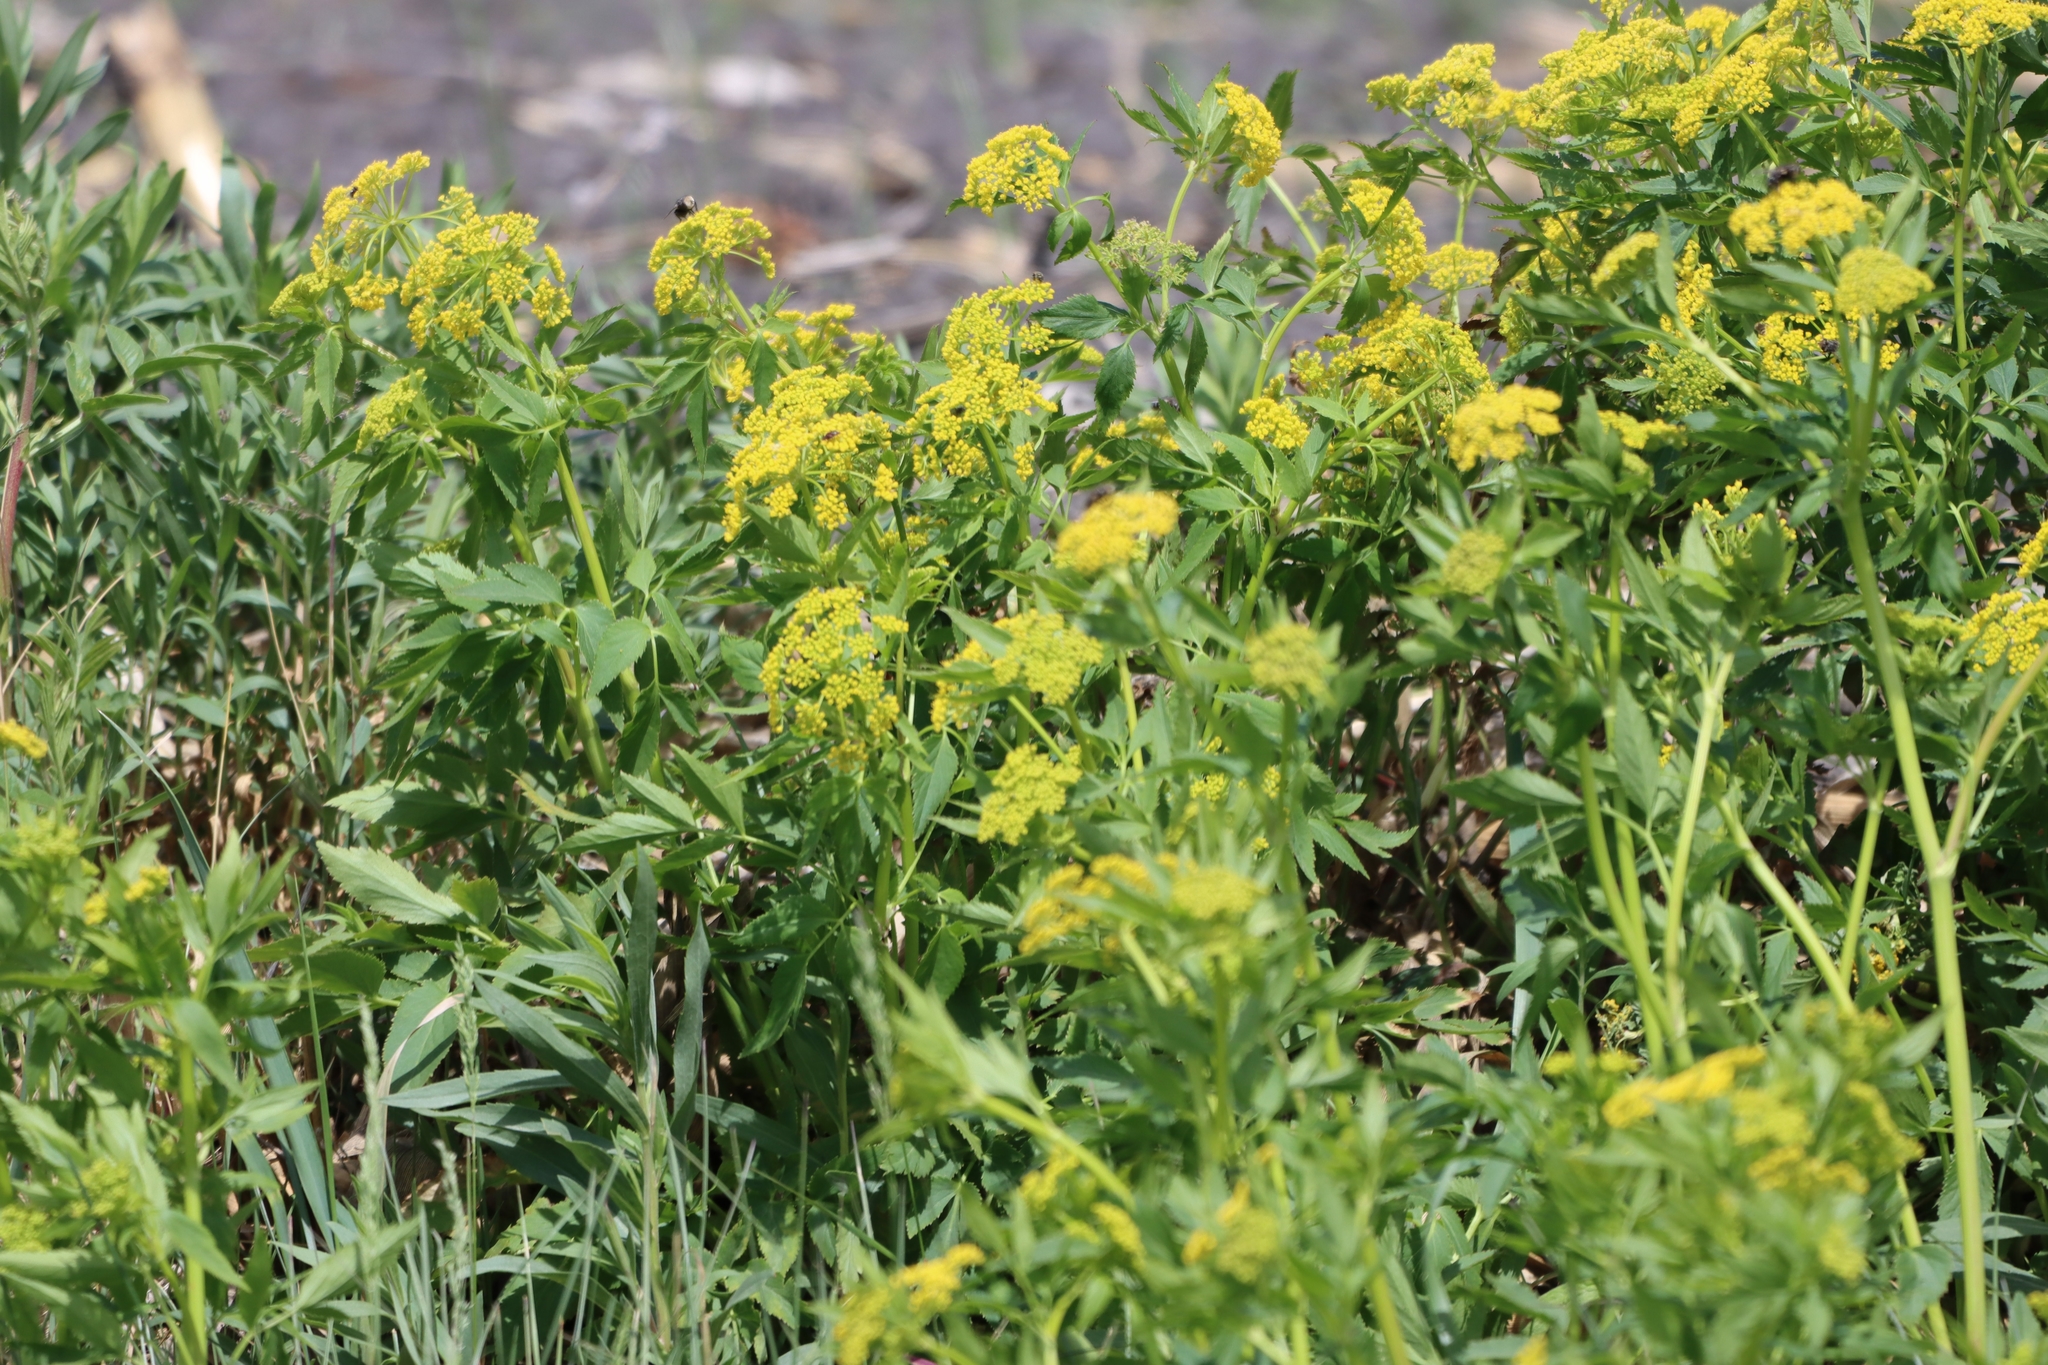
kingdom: Plantae
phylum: Tracheophyta
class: Magnoliopsida
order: Apiales
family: Apiaceae
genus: Pastinaca
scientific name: Pastinaca sativa
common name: Wild parsnip
